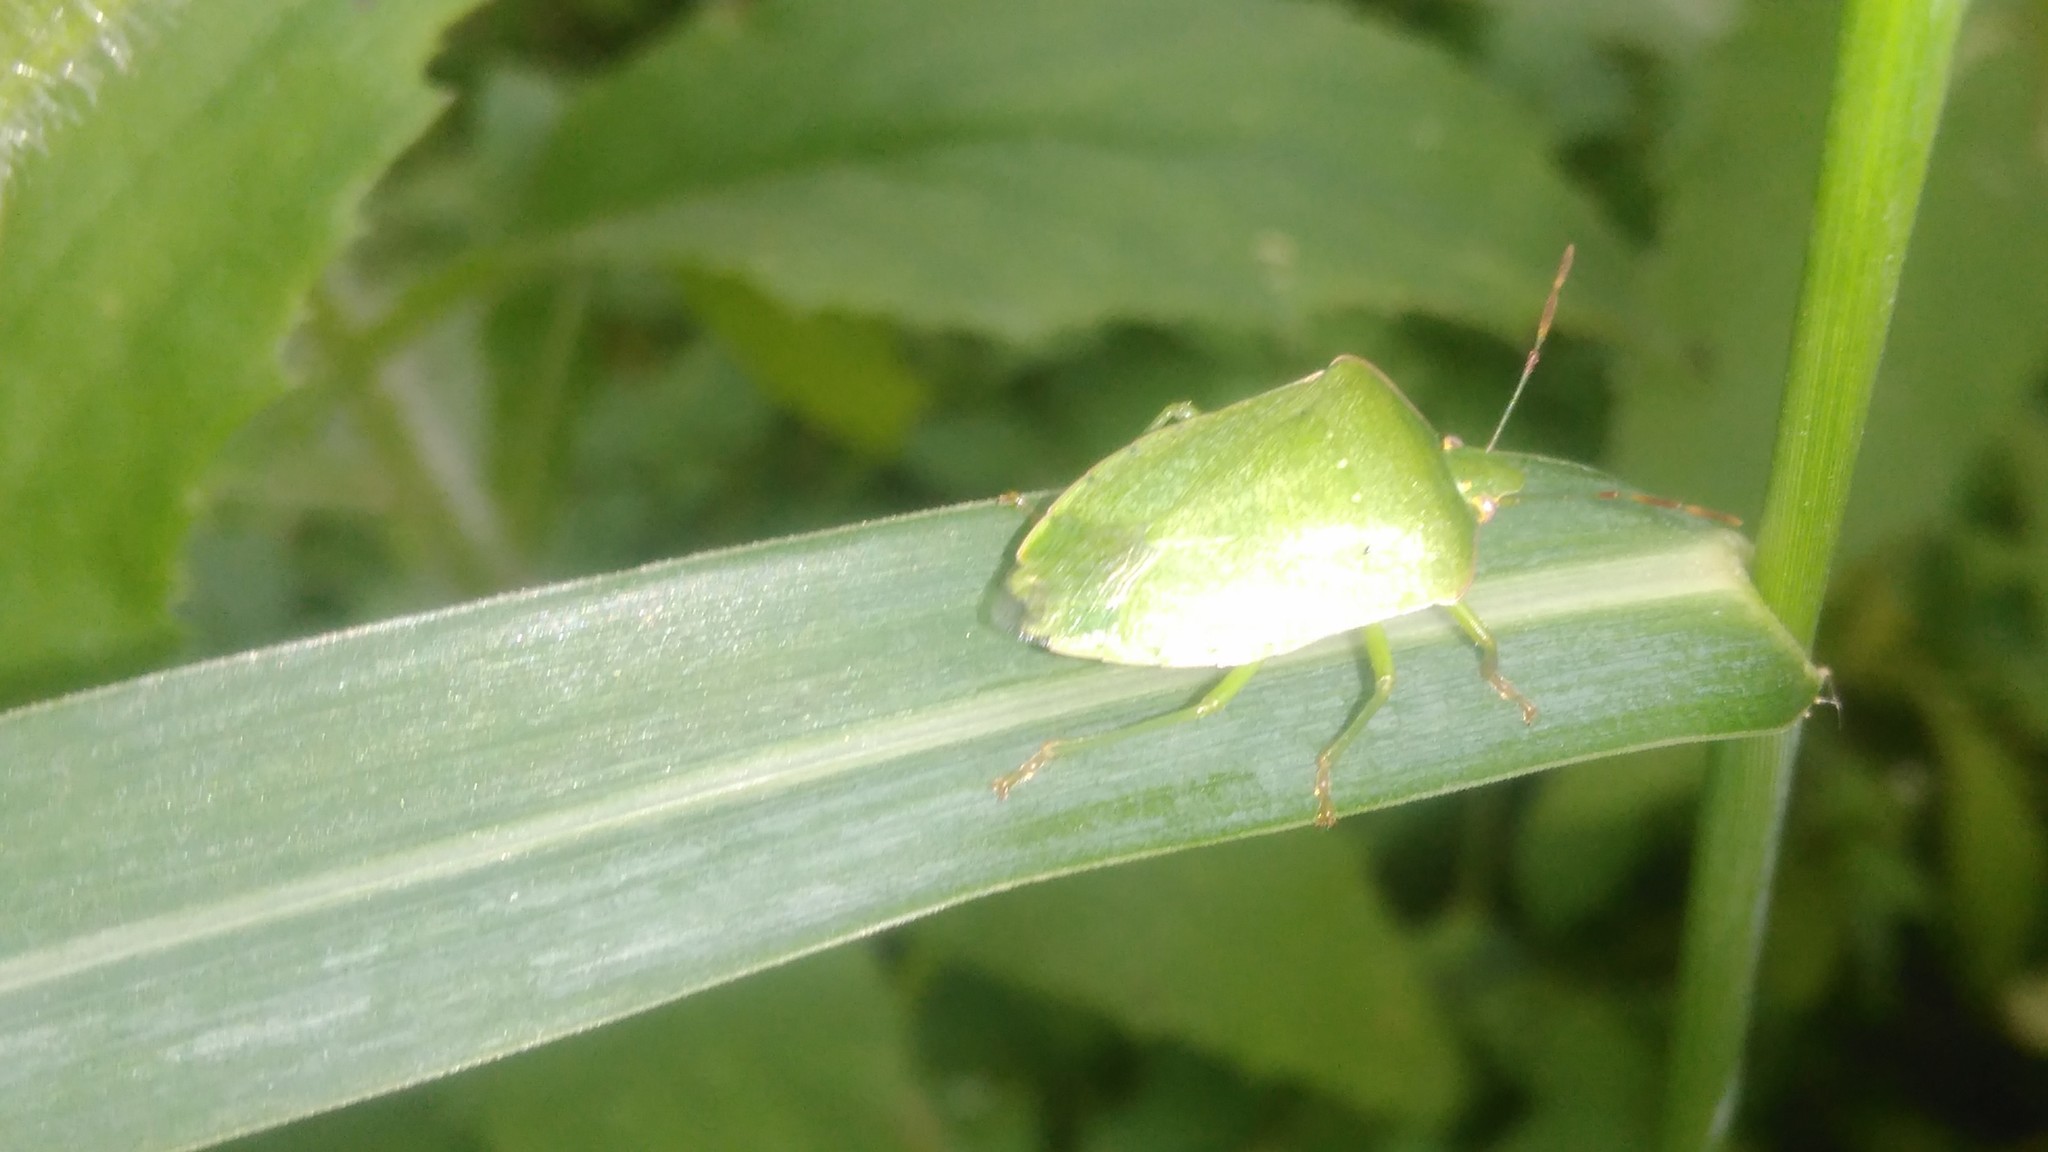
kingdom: Animalia
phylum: Arthropoda
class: Insecta
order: Hemiptera
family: Pentatomidae
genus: Nezara
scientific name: Nezara viridula
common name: Southern green stink bug
